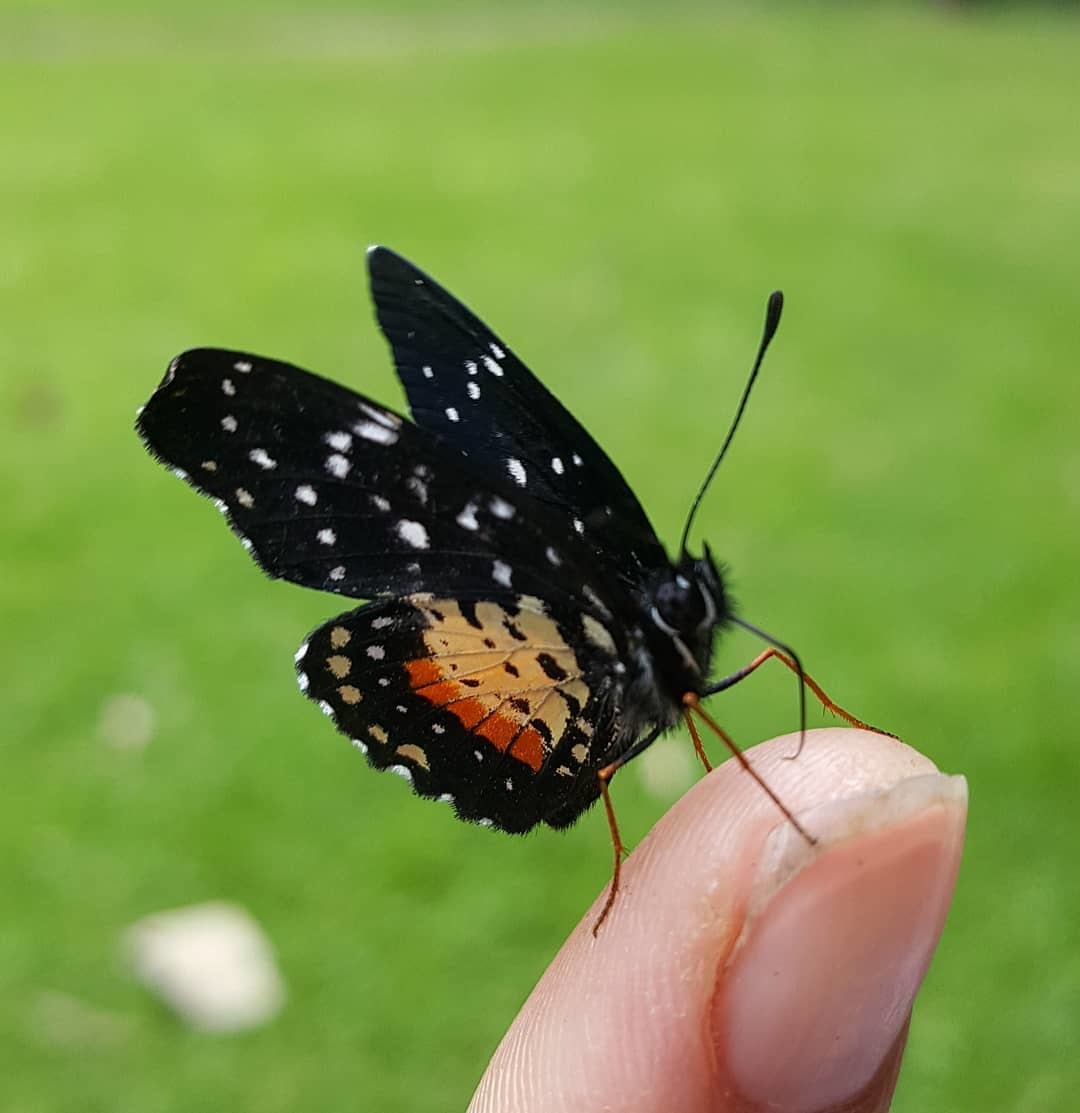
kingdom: Animalia
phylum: Arthropoda
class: Insecta
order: Lepidoptera
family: Nymphalidae
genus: Chlosyne
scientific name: Chlosyne janais
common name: Crimson patch
